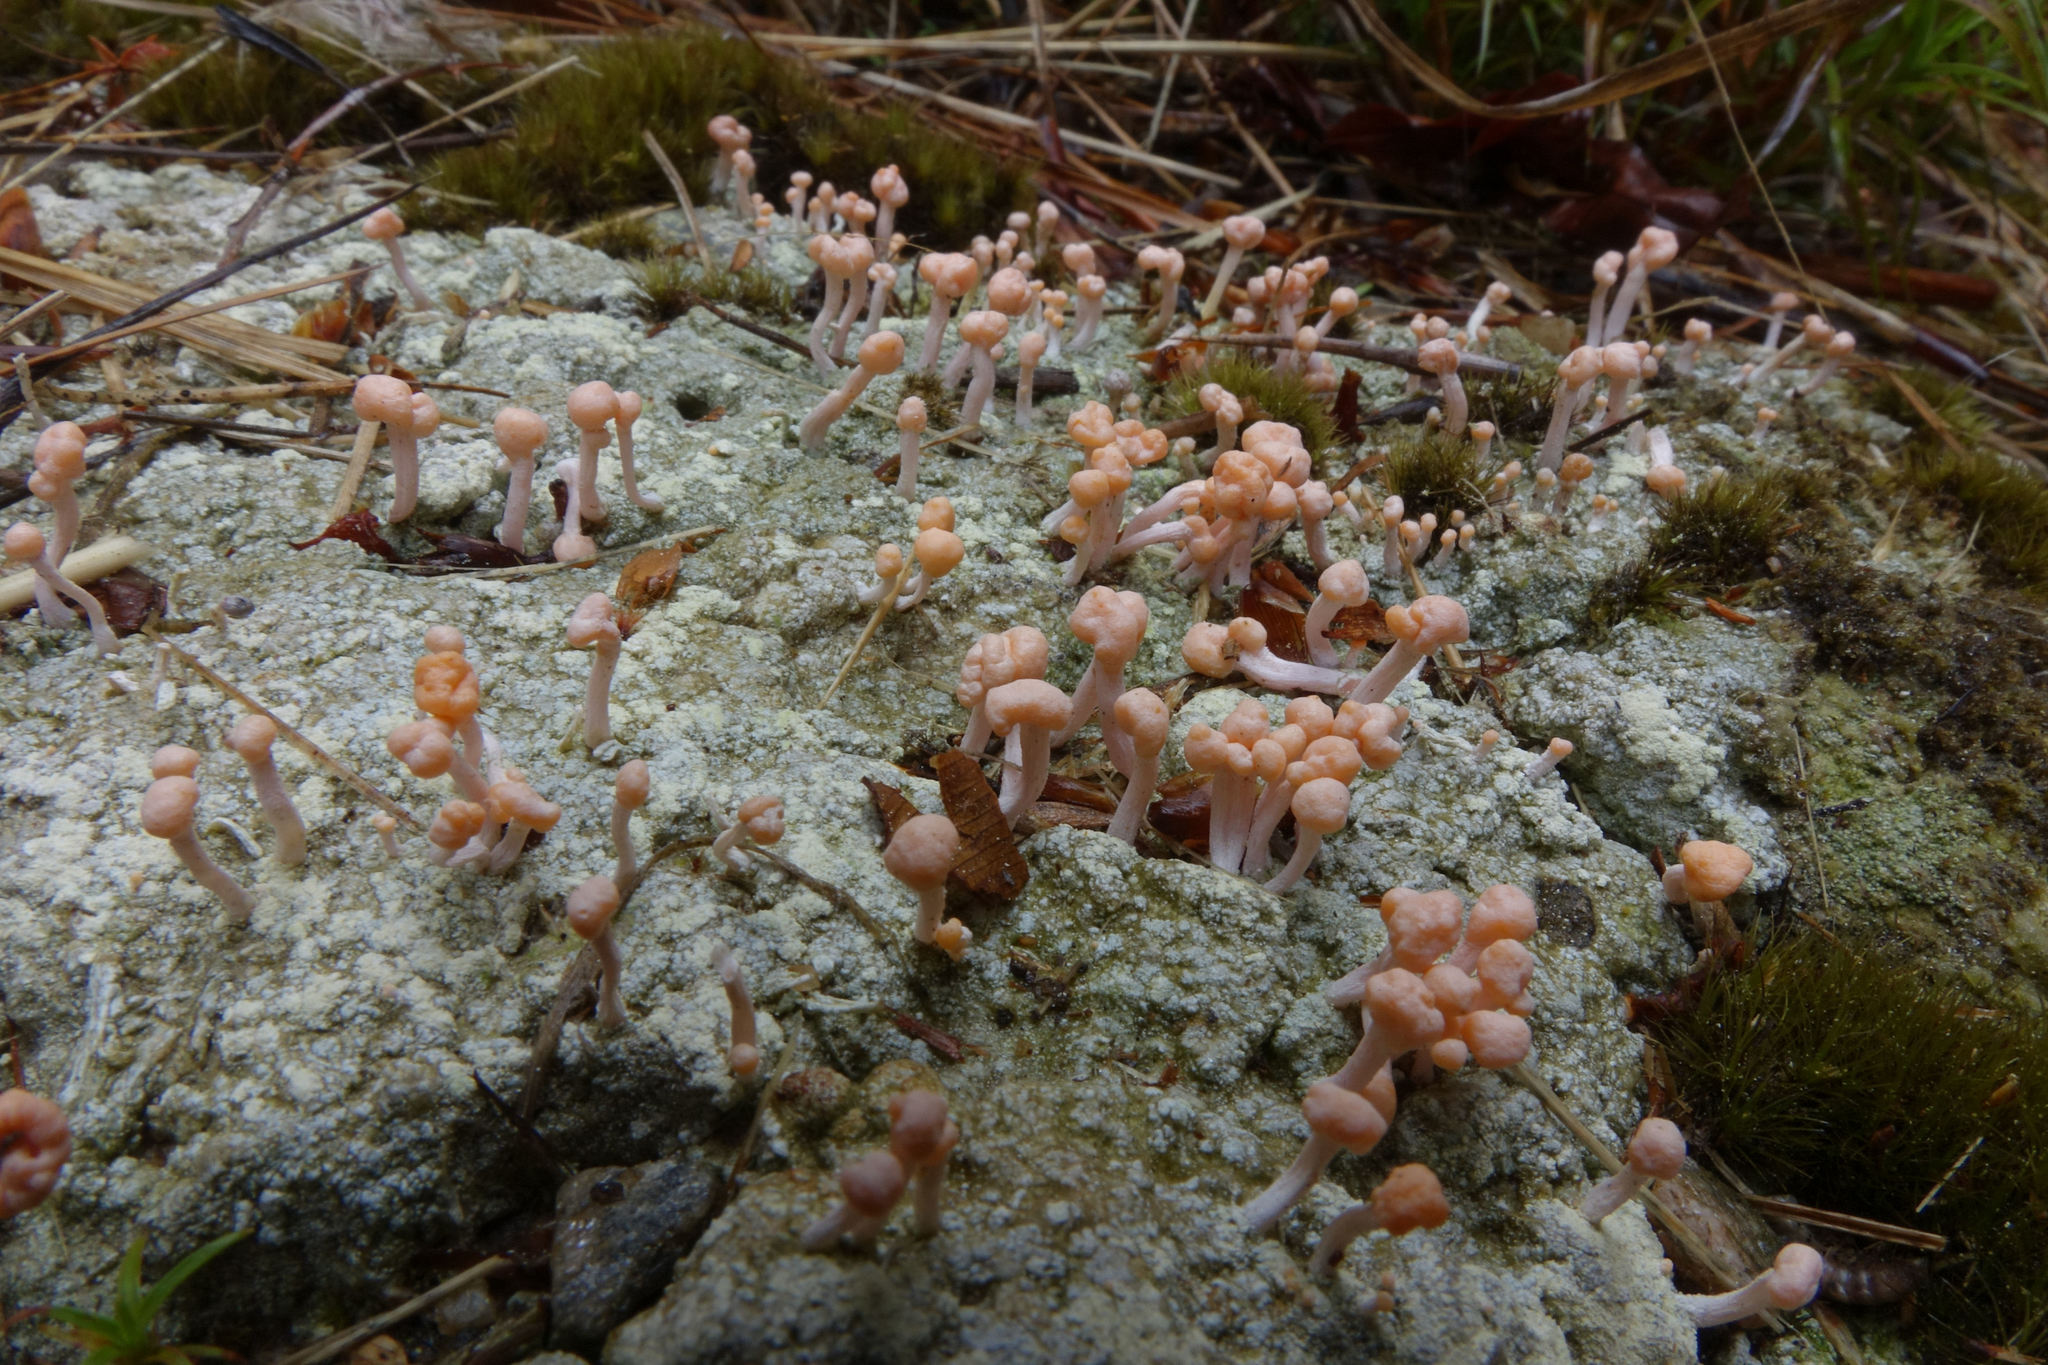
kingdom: Fungi
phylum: Ascomycota
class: Lecanoromycetes
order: Pertusariales
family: Icmadophilaceae
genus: Dibaeis
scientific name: Dibaeis arcuata
